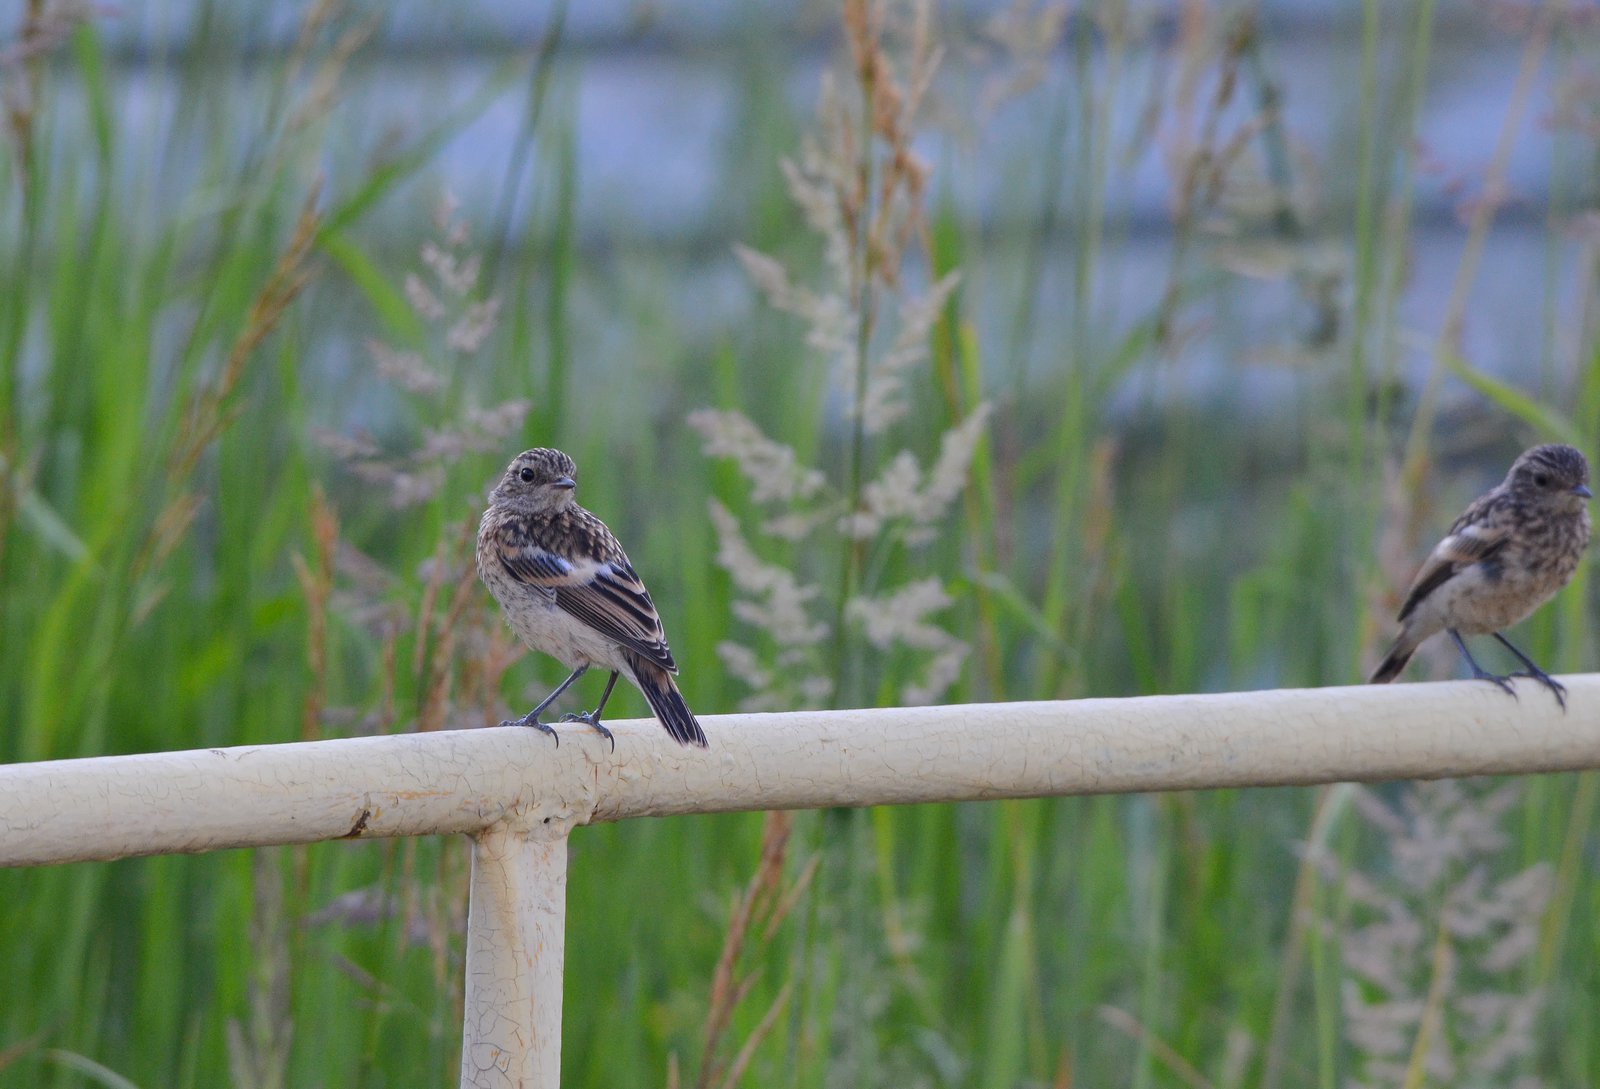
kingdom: Animalia
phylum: Chordata
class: Aves
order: Passeriformes
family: Muscicapidae
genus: Saxicola
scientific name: Saxicola maurus
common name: Siberian stonechat
